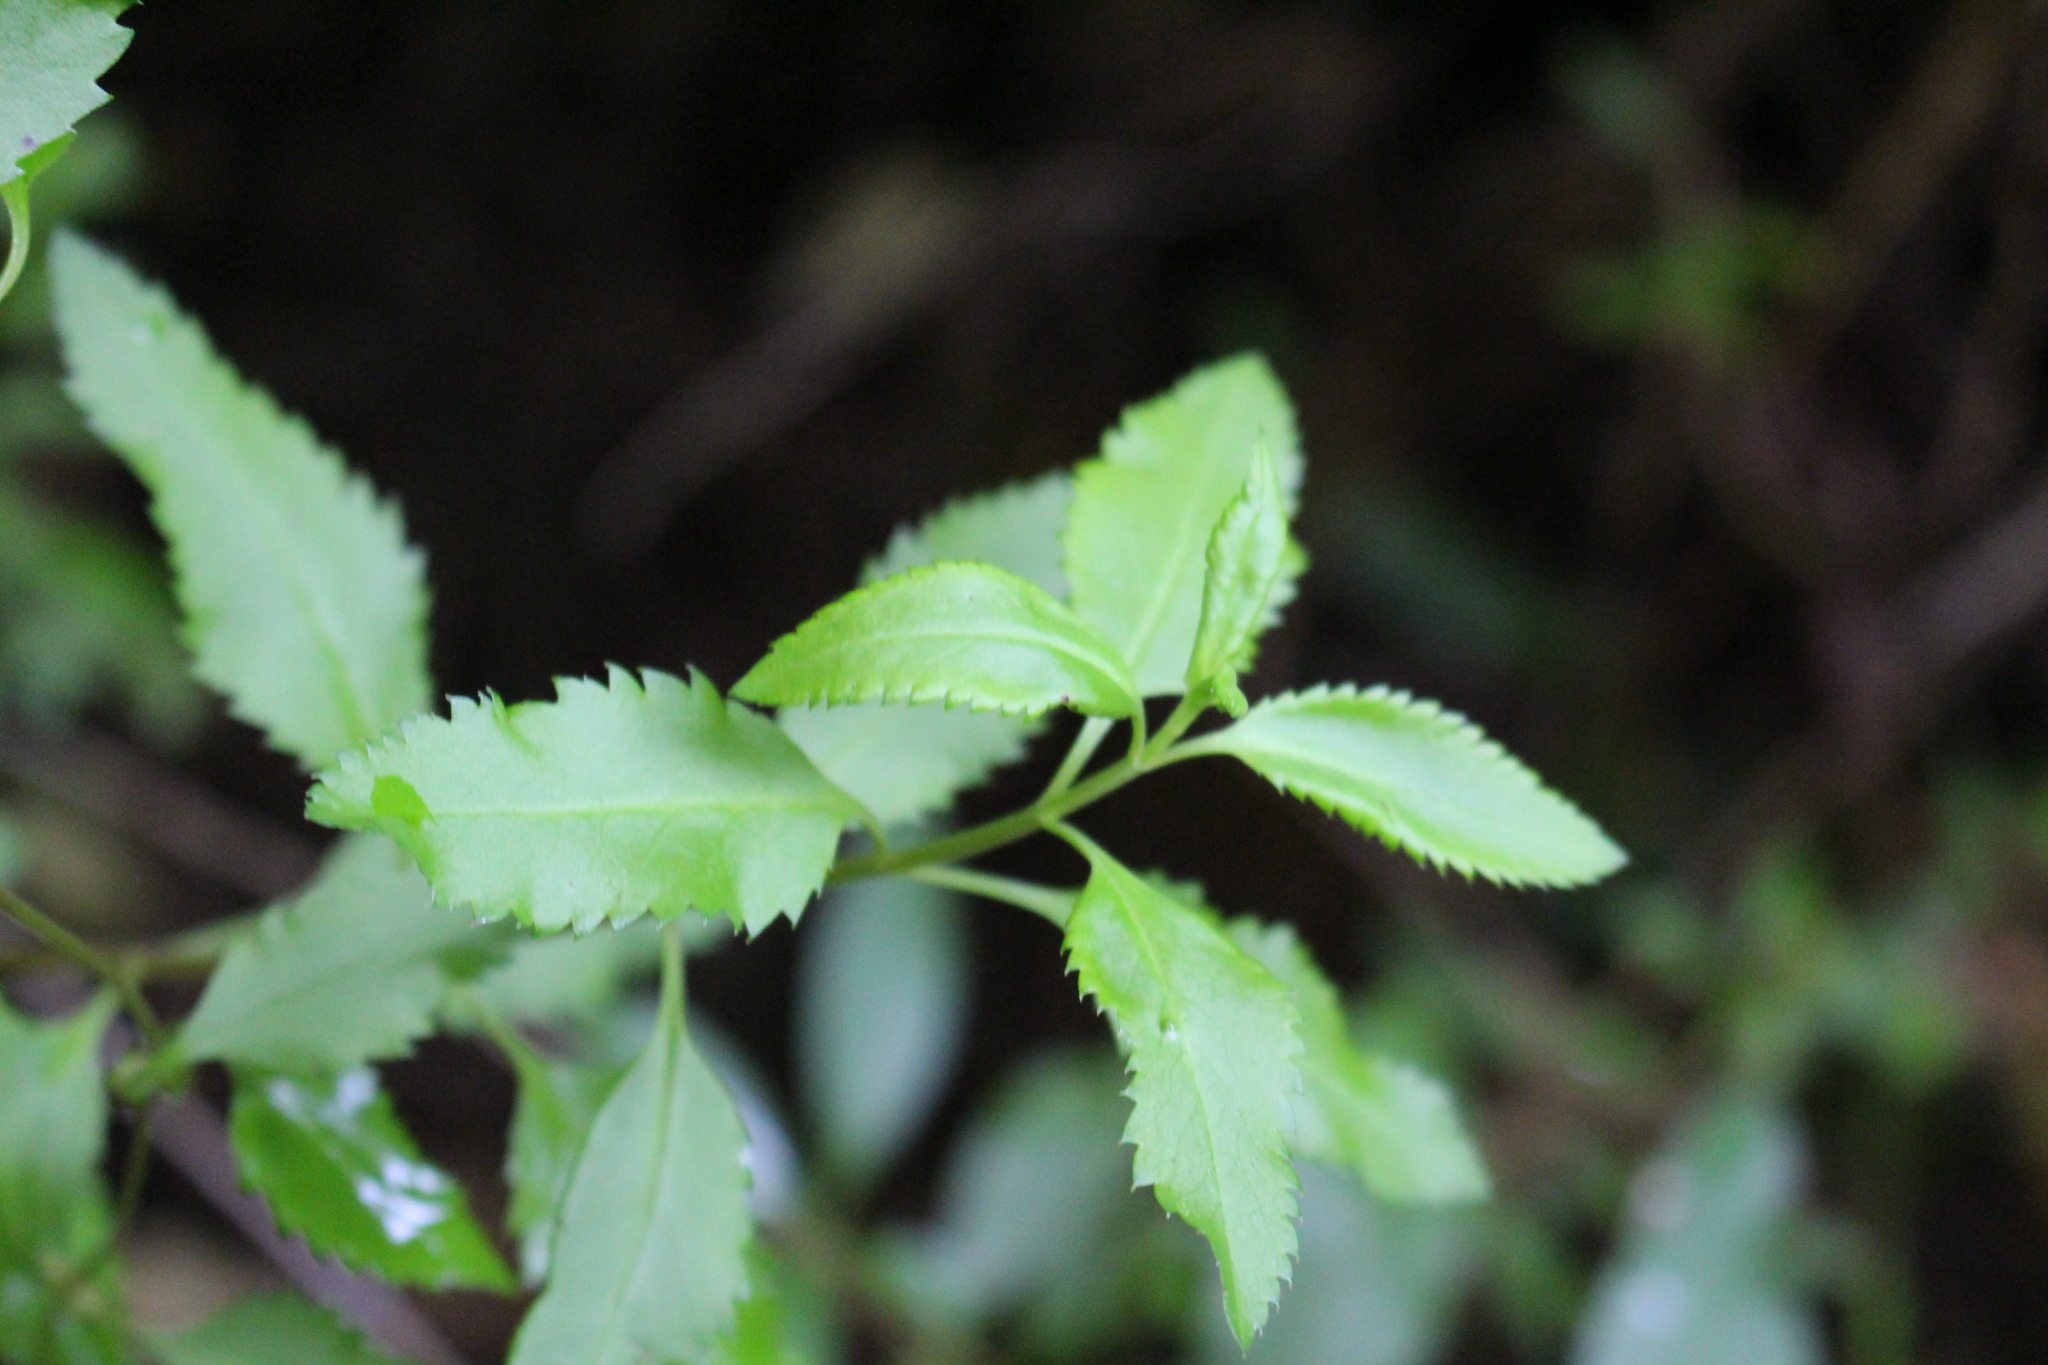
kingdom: Plantae
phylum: Tracheophyta
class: Magnoliopsida
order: Saxifragales
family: Haloragaceae
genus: Haloragis
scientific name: Haloragis erecta
